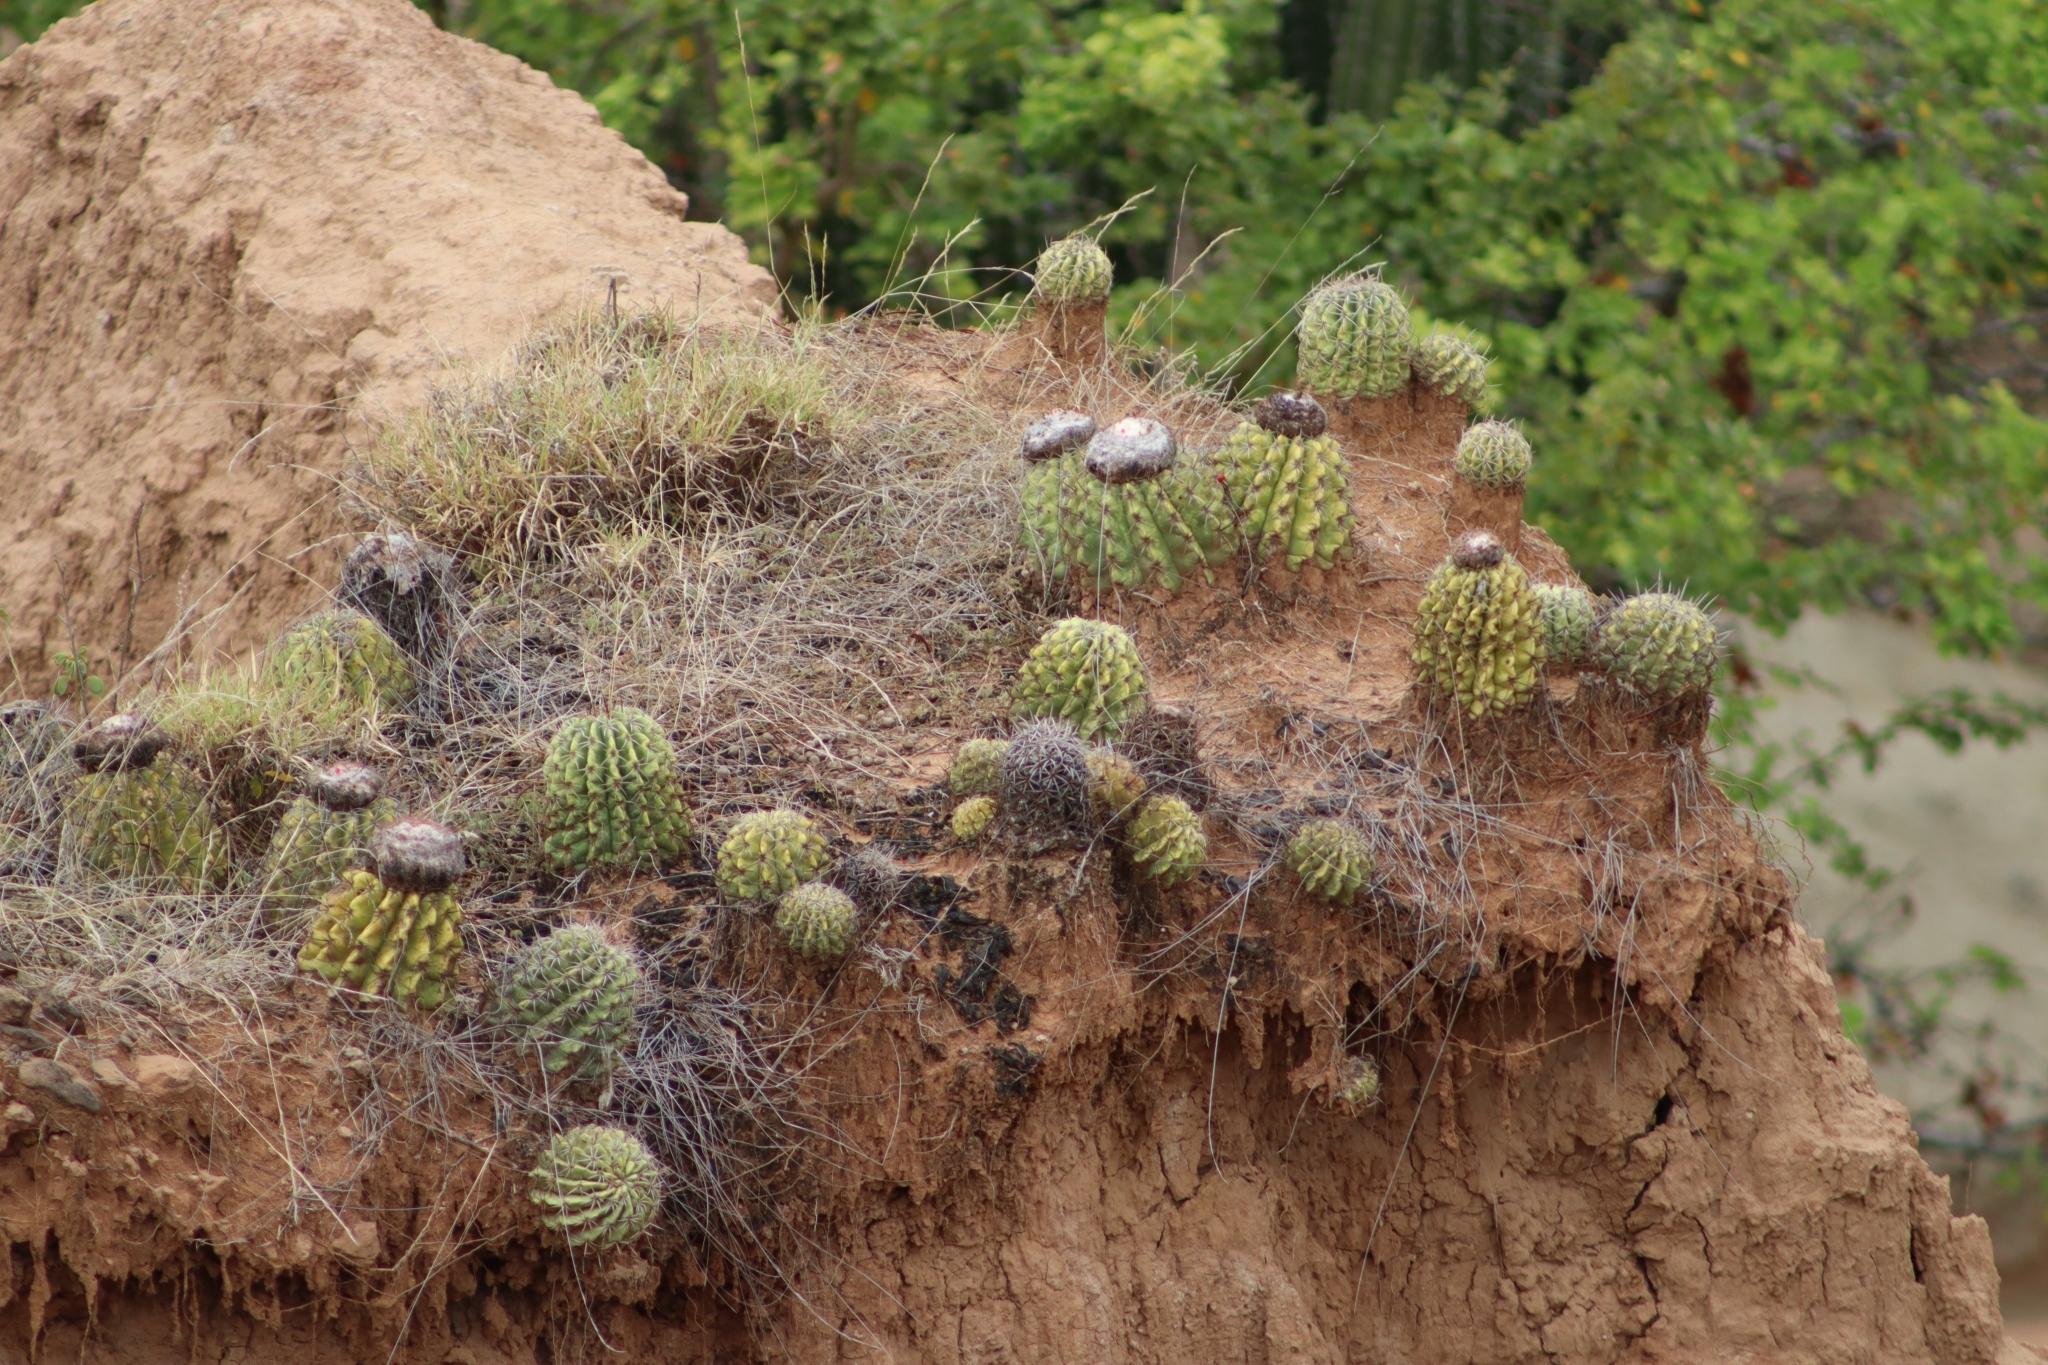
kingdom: Plantae
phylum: Tracheophyta
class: Magnoliopsida
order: Caryophyllales
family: Cactaceae
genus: Melocactus
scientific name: Melocactus curvispinus
